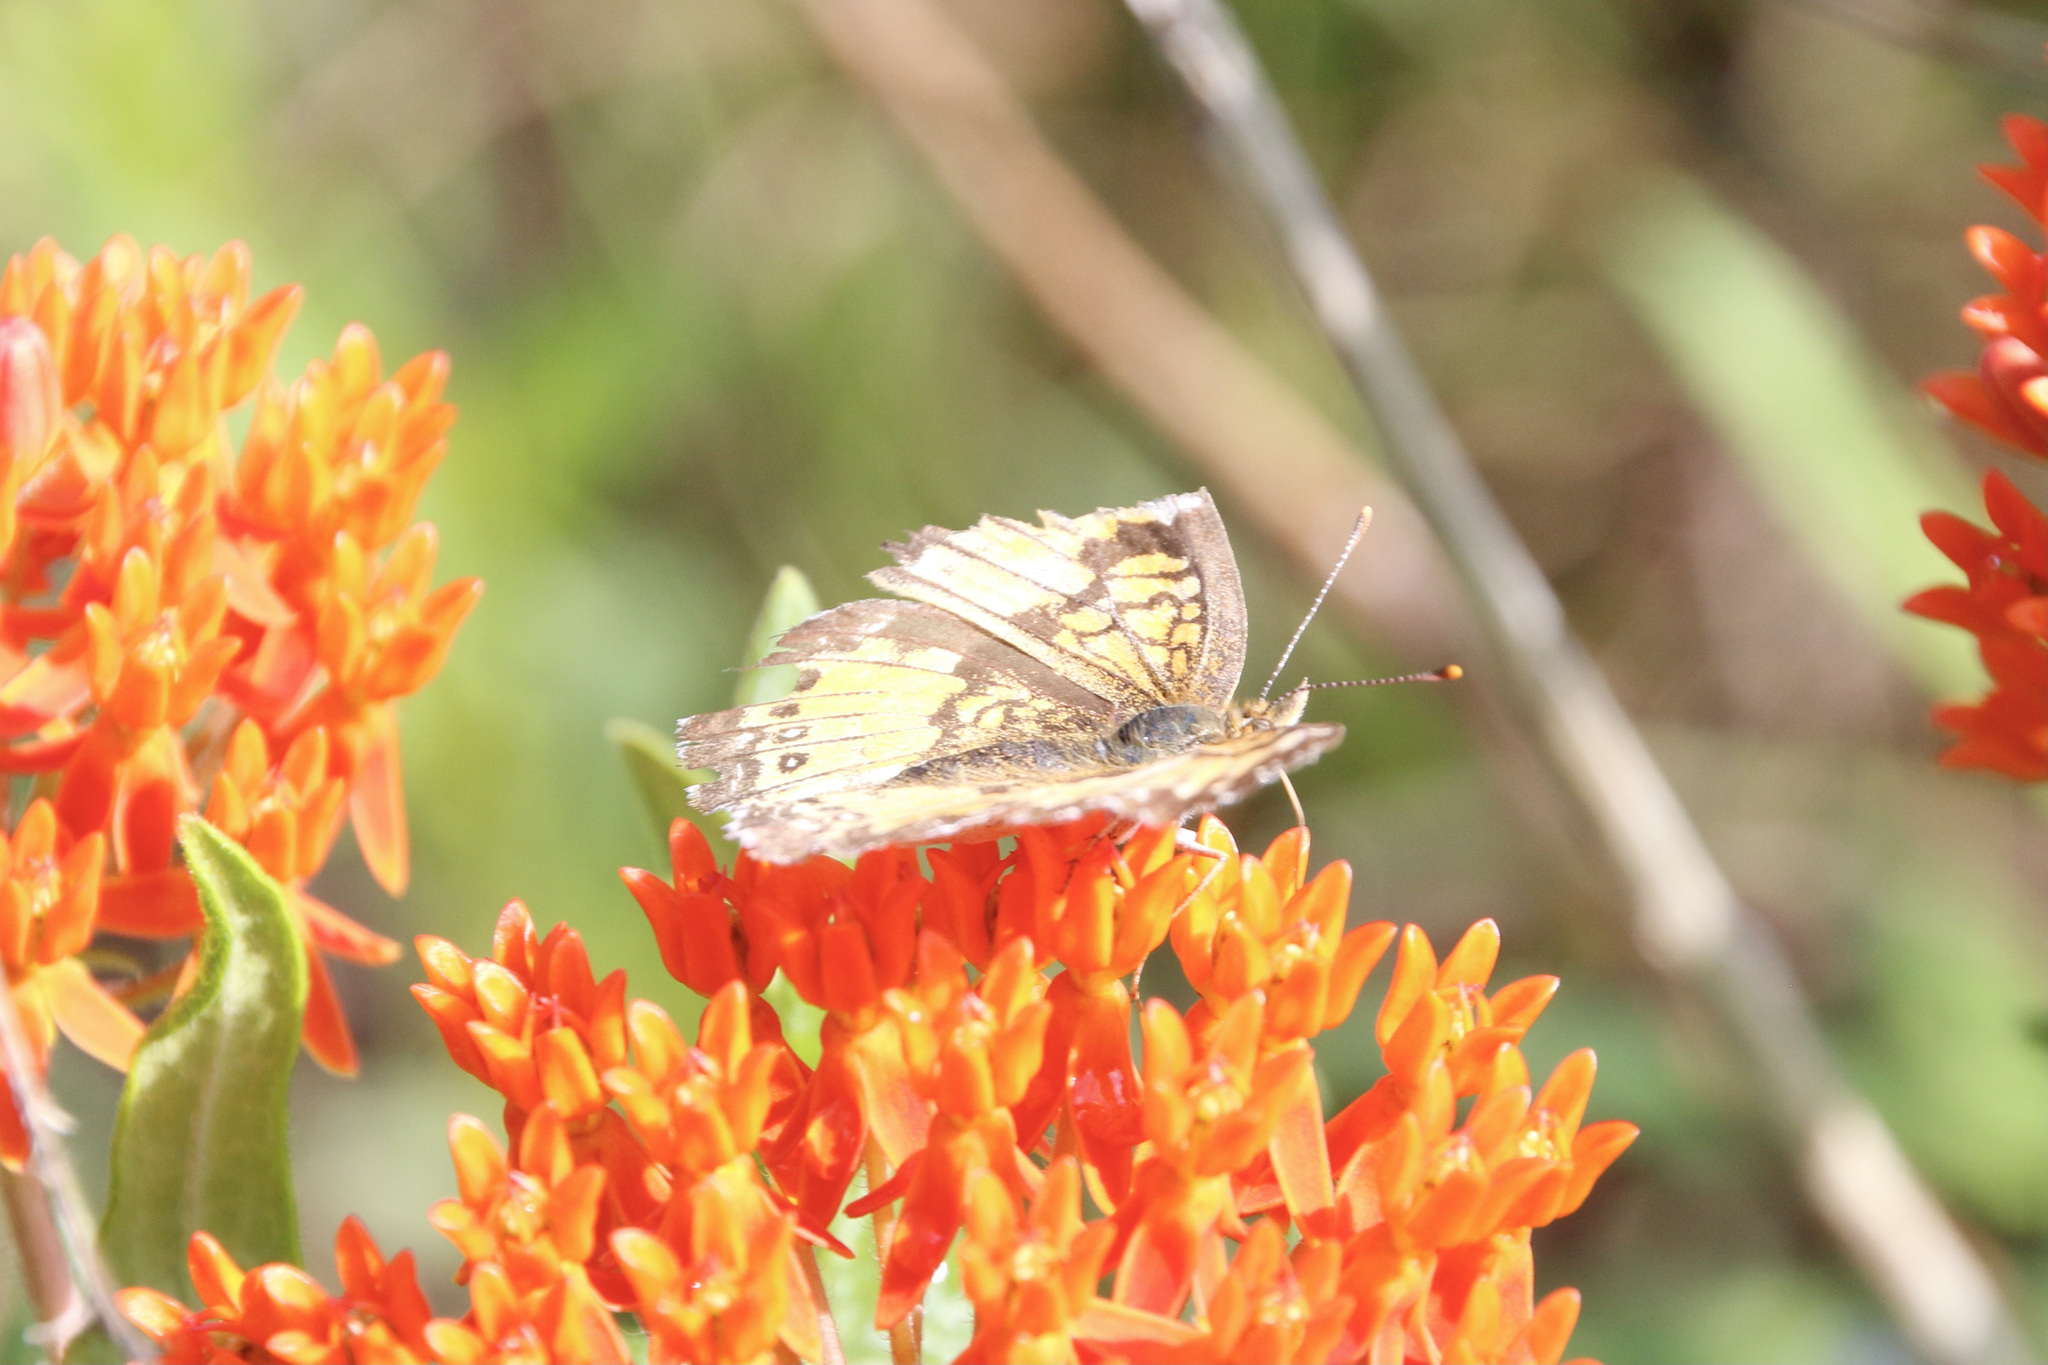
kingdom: Animalia
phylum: Arthropoda
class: Insecta
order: Lepidoptera
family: Nymphalidae
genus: Chlosyne
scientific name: Chlosyne nycteis
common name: Silvery checkerspot
